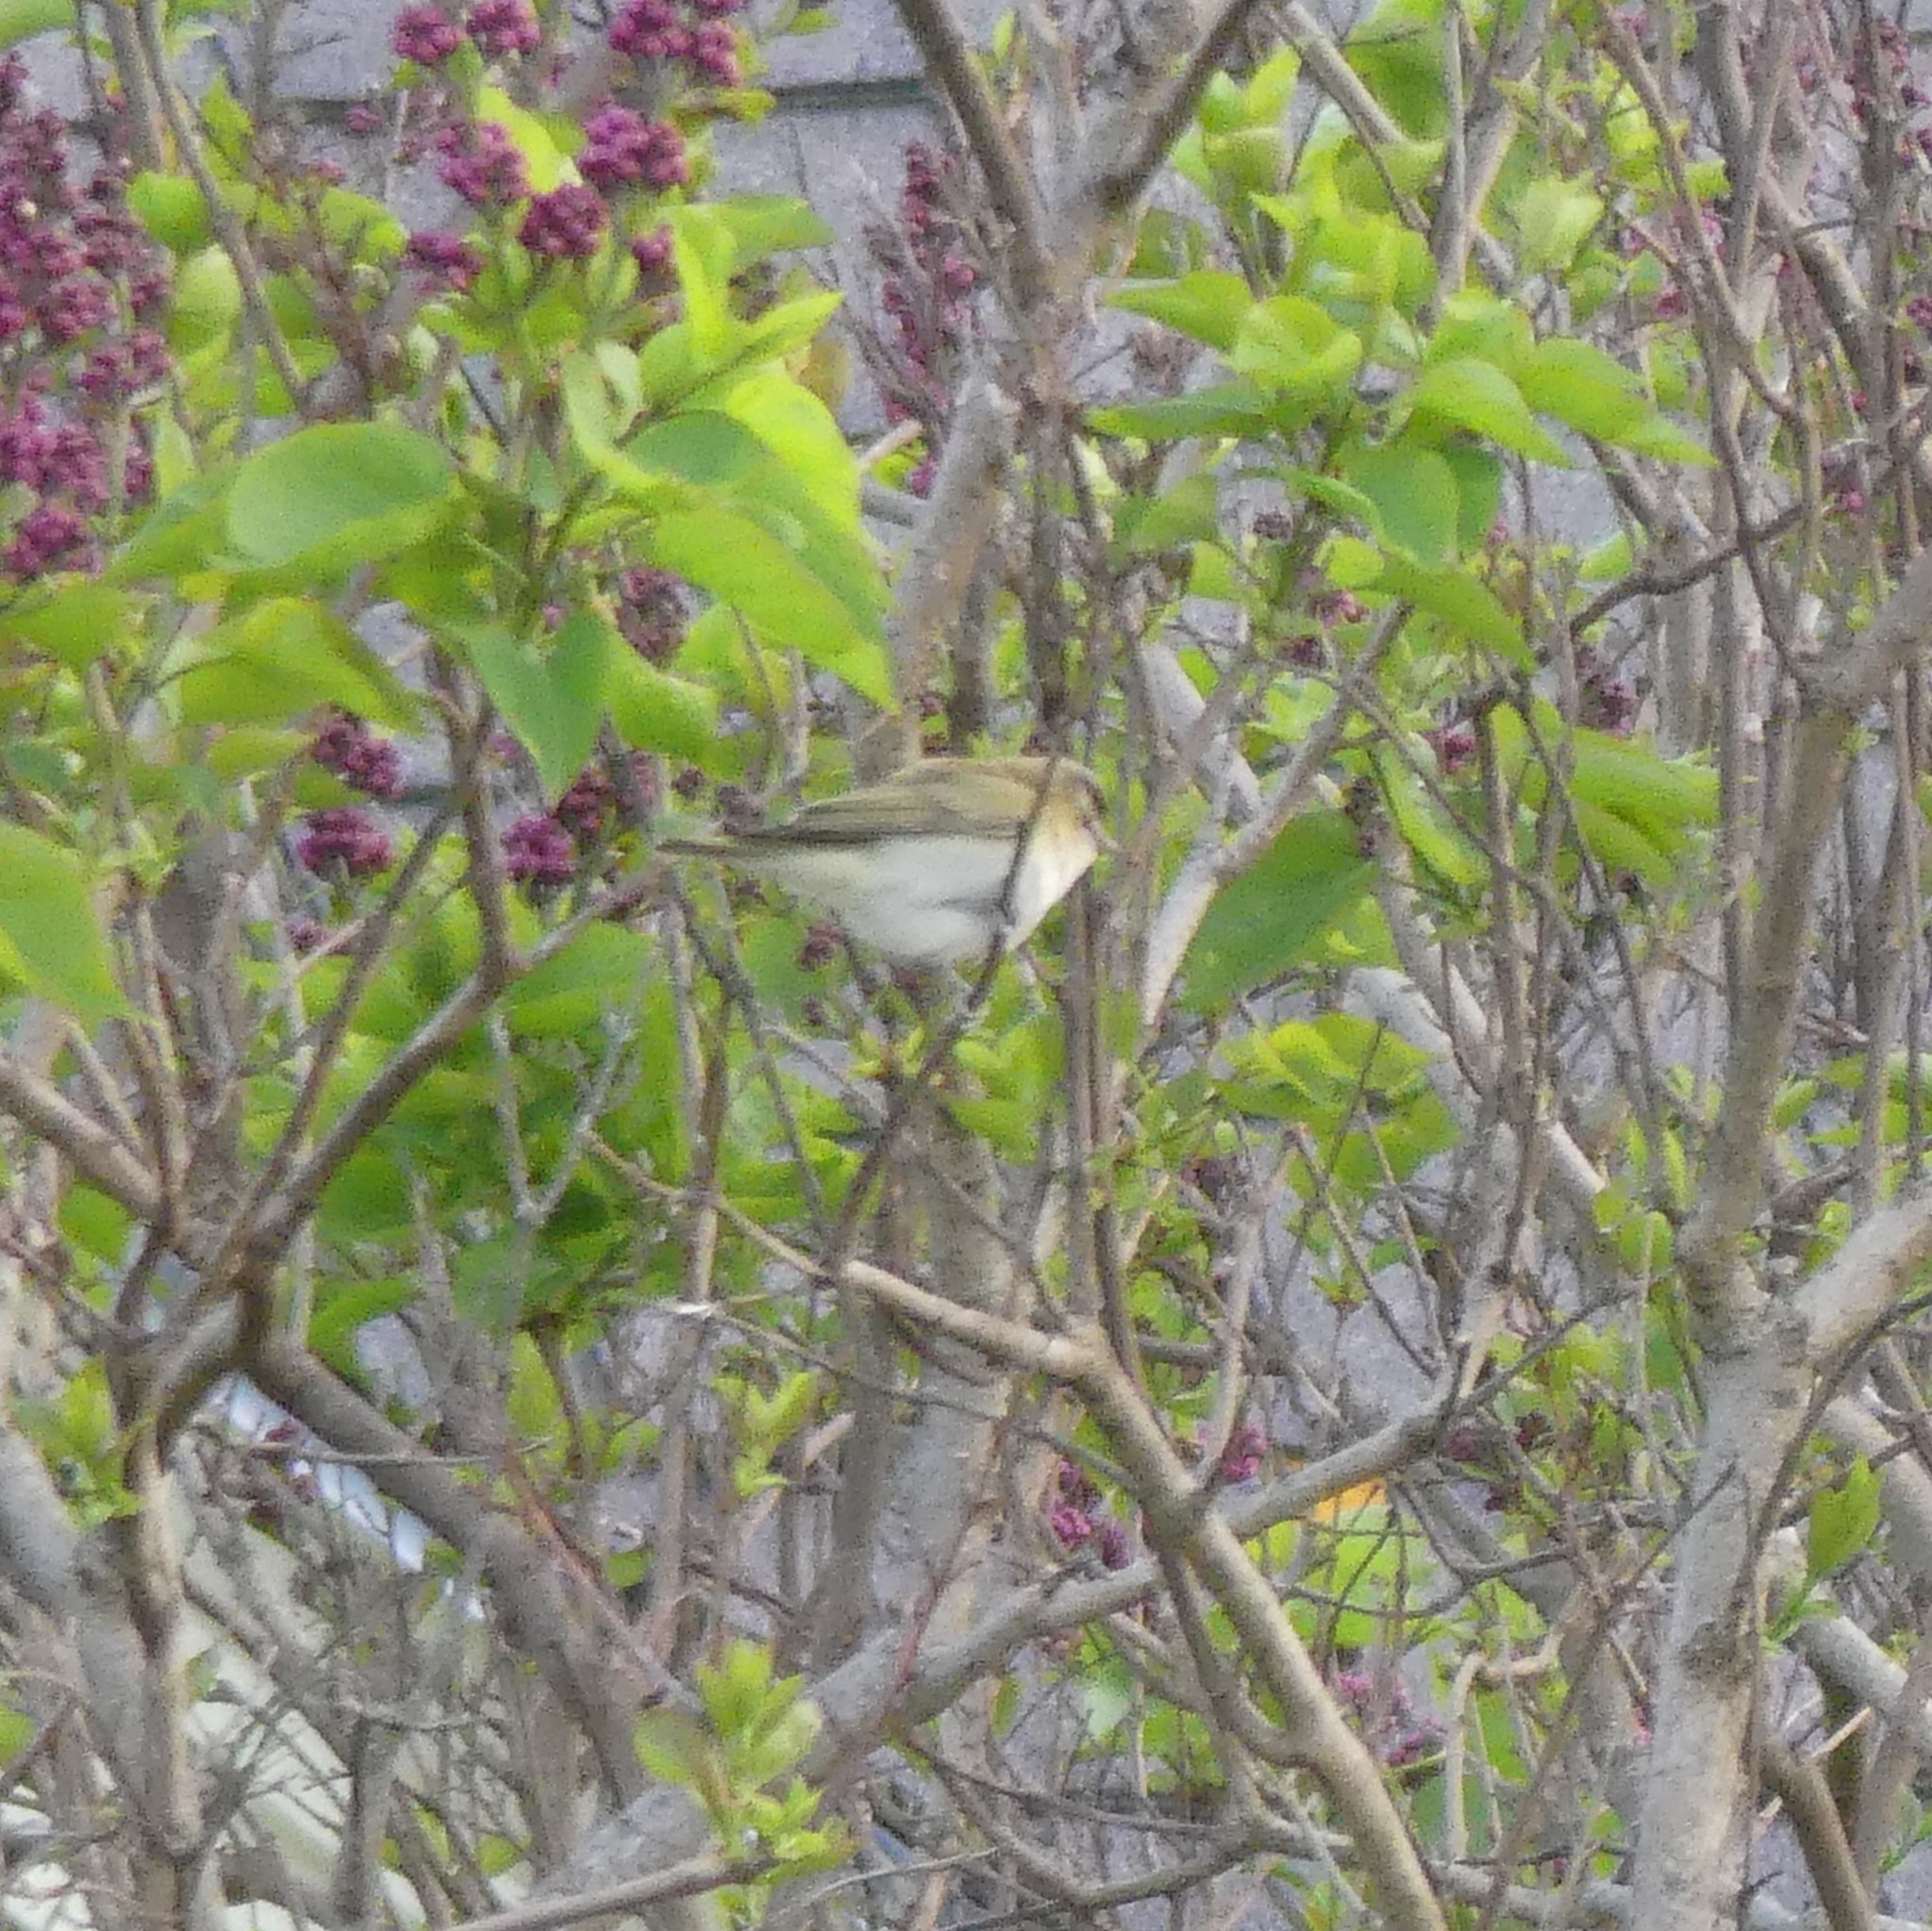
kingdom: Animalia
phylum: Chordata
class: Aves
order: Passeriformes
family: Vireonidae
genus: Vireo
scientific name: Vireo olivaceus
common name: Red-eyed vireo
